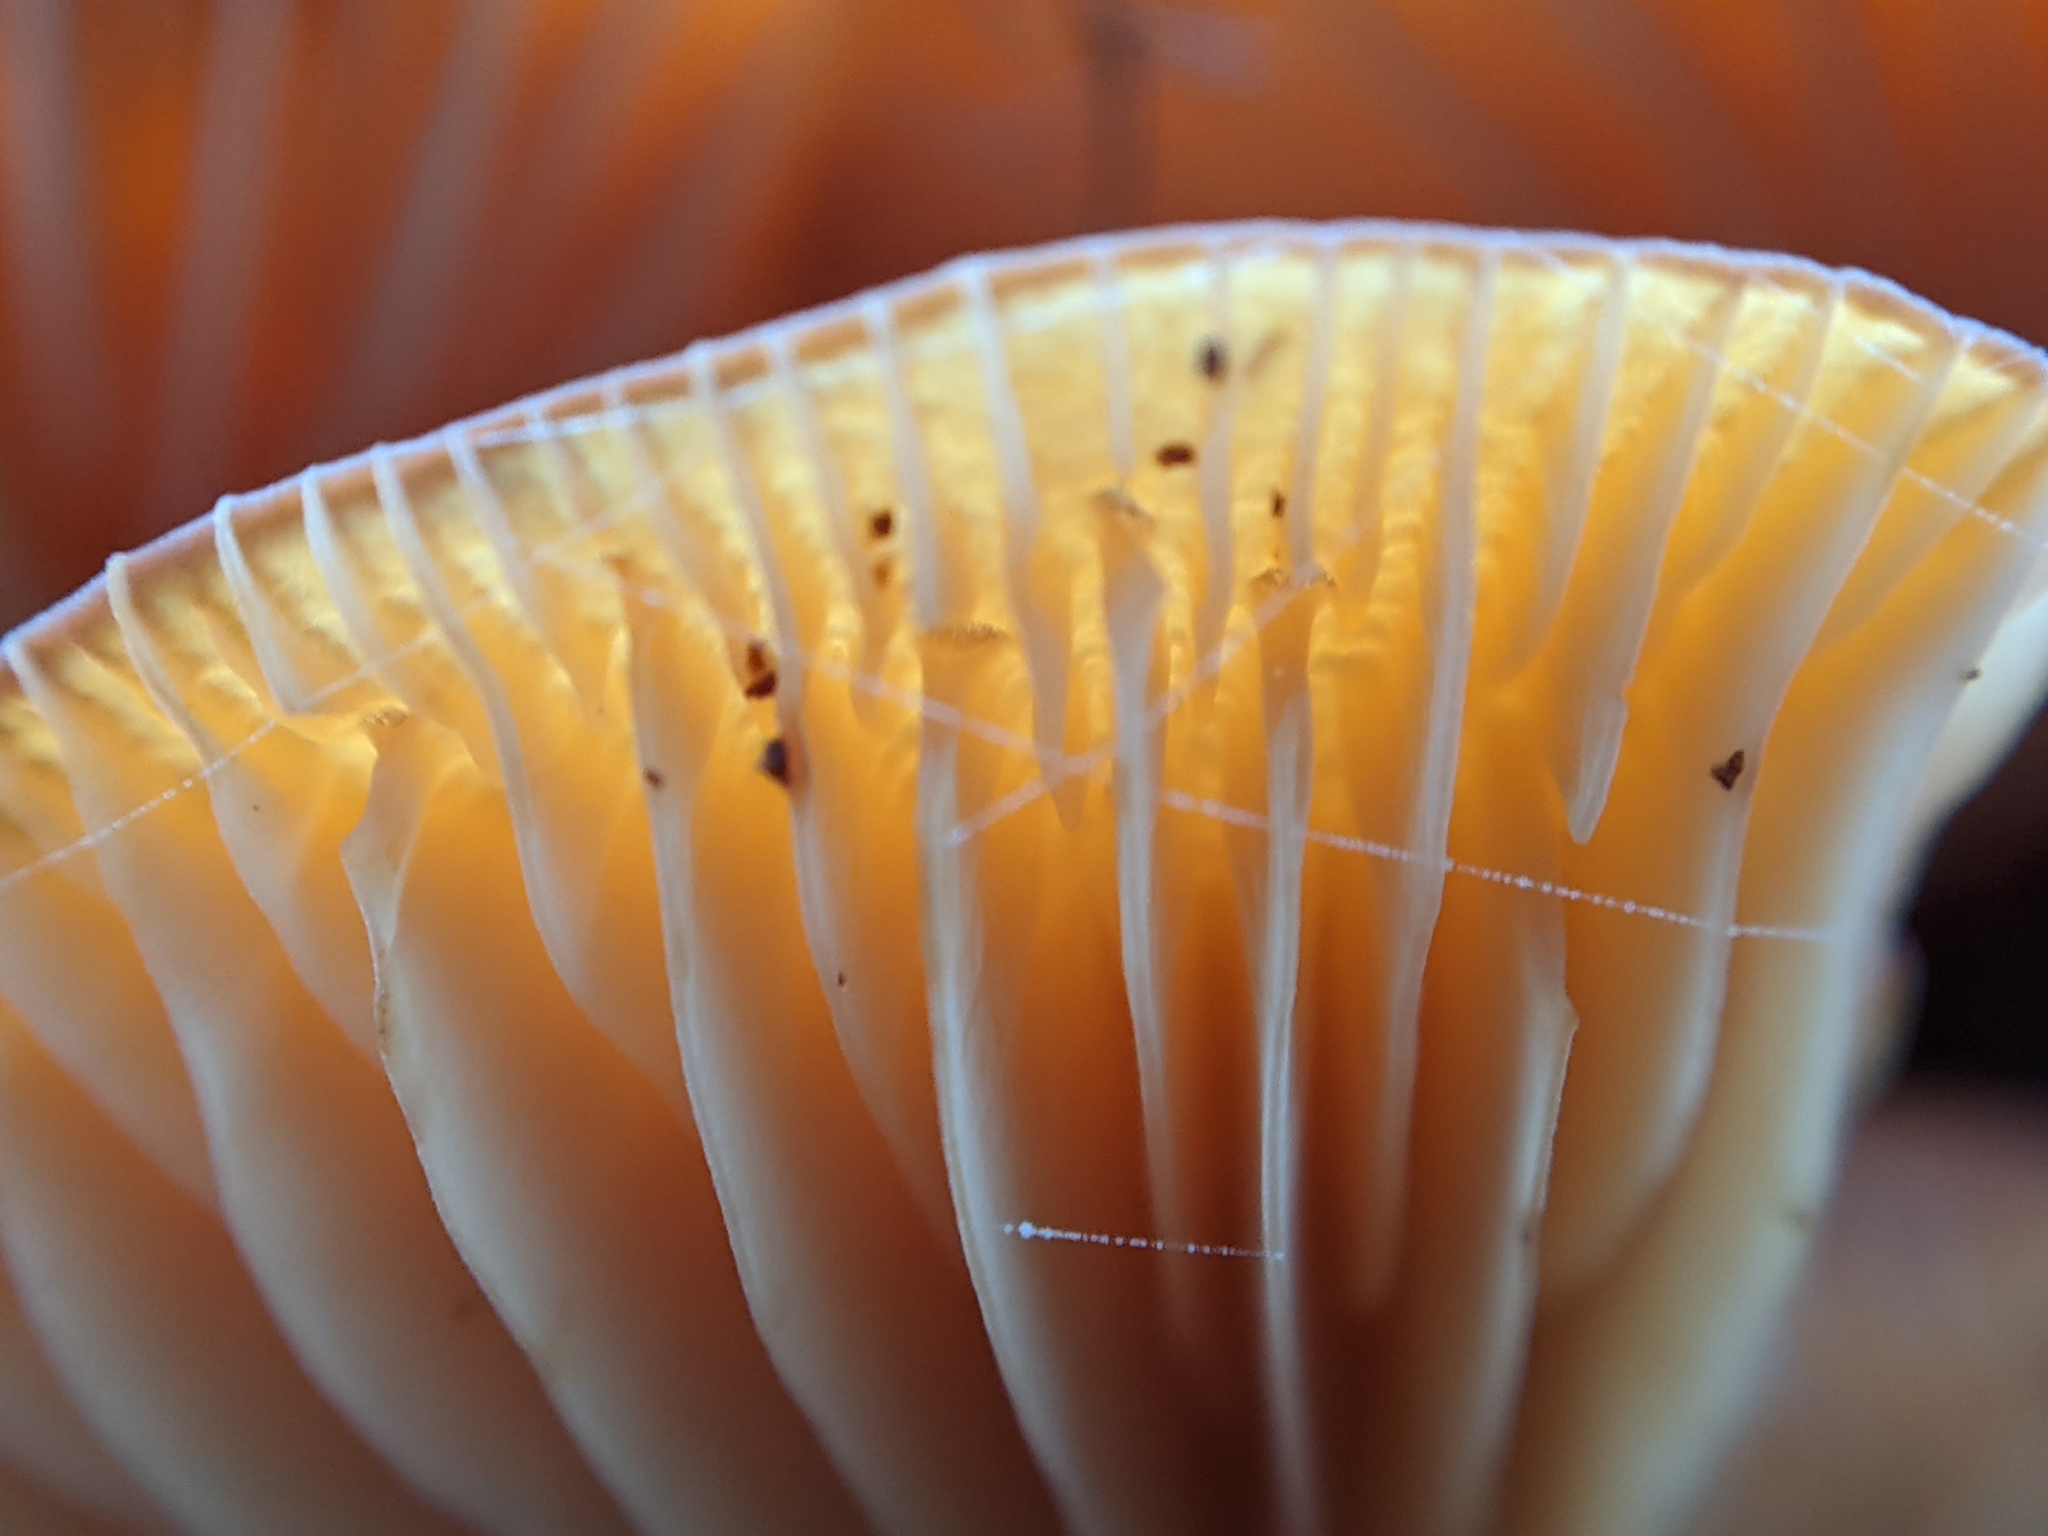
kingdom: Fungi
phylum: Basidiomycota
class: Agaricomycetes
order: Agaricales
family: Physalacriaceae
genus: Flammulina
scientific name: Flammulina
